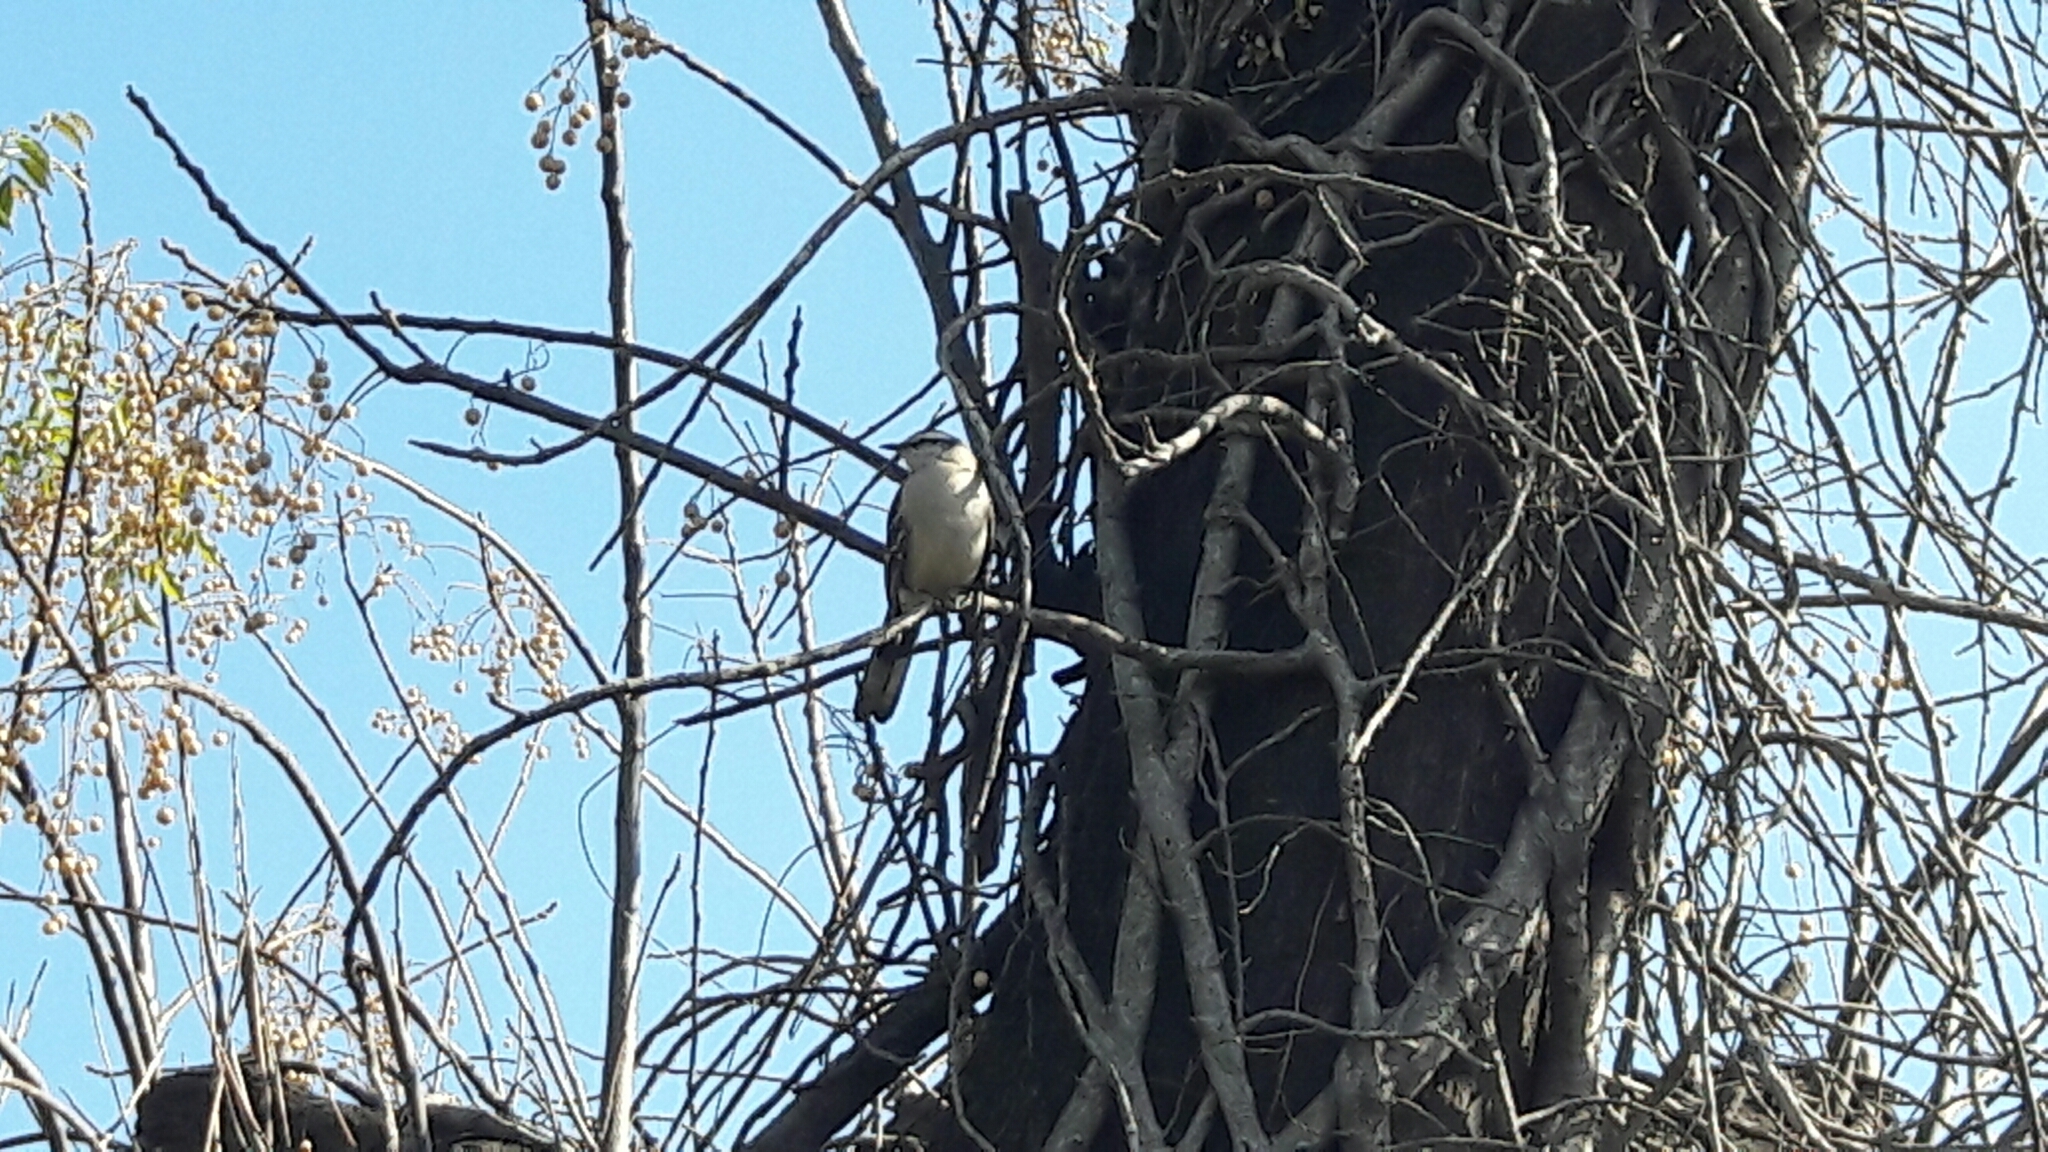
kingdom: Animalia
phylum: Chordata
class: Aves
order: Passeriformes
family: Mimidae
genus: Mimus
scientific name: Mimus saturninus
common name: Chalk-browed mockingbird
